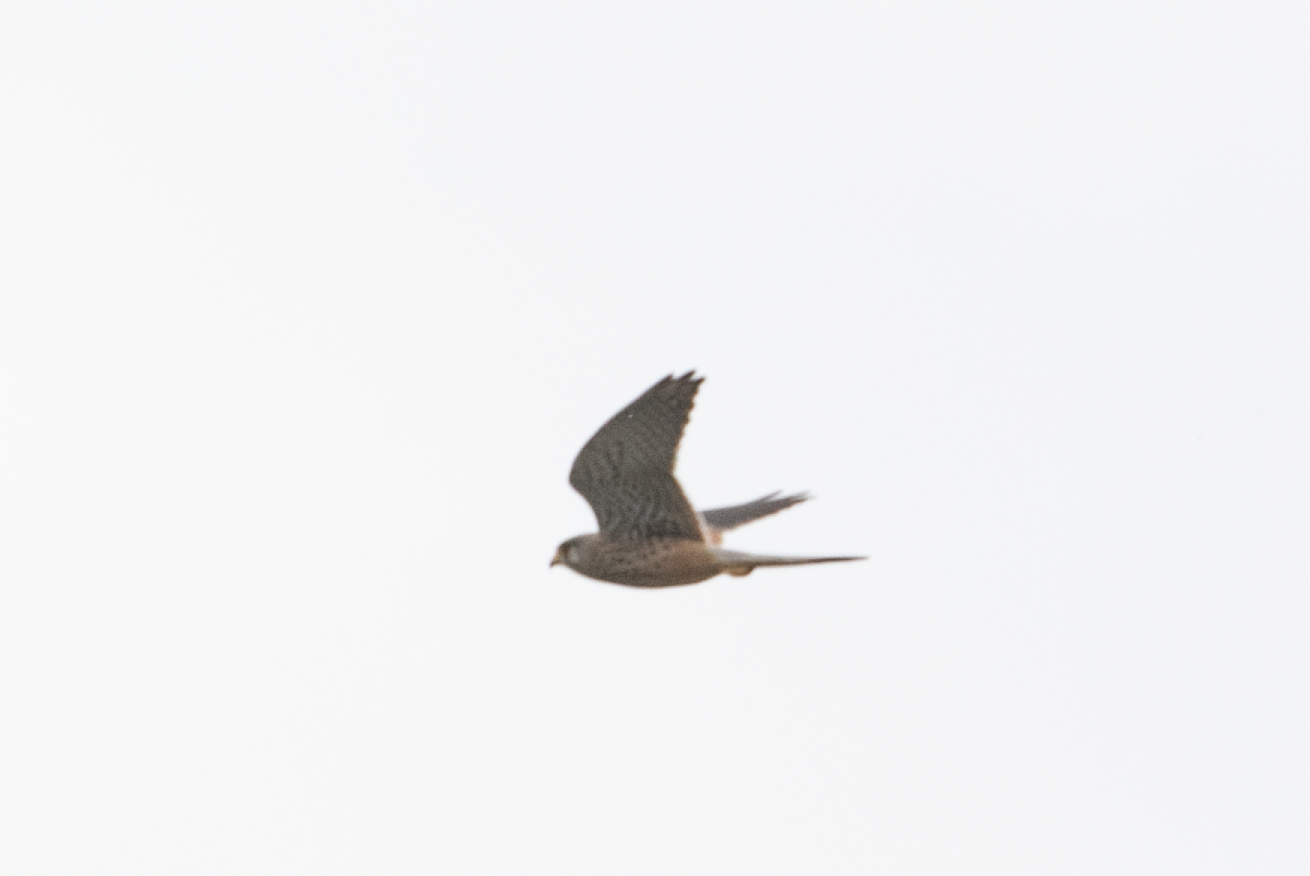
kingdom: Animalia
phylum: Chordata
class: Aves
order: Falconiformes
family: Falconidae
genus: Falco
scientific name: Falco tinnunculus
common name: Common kestrel
